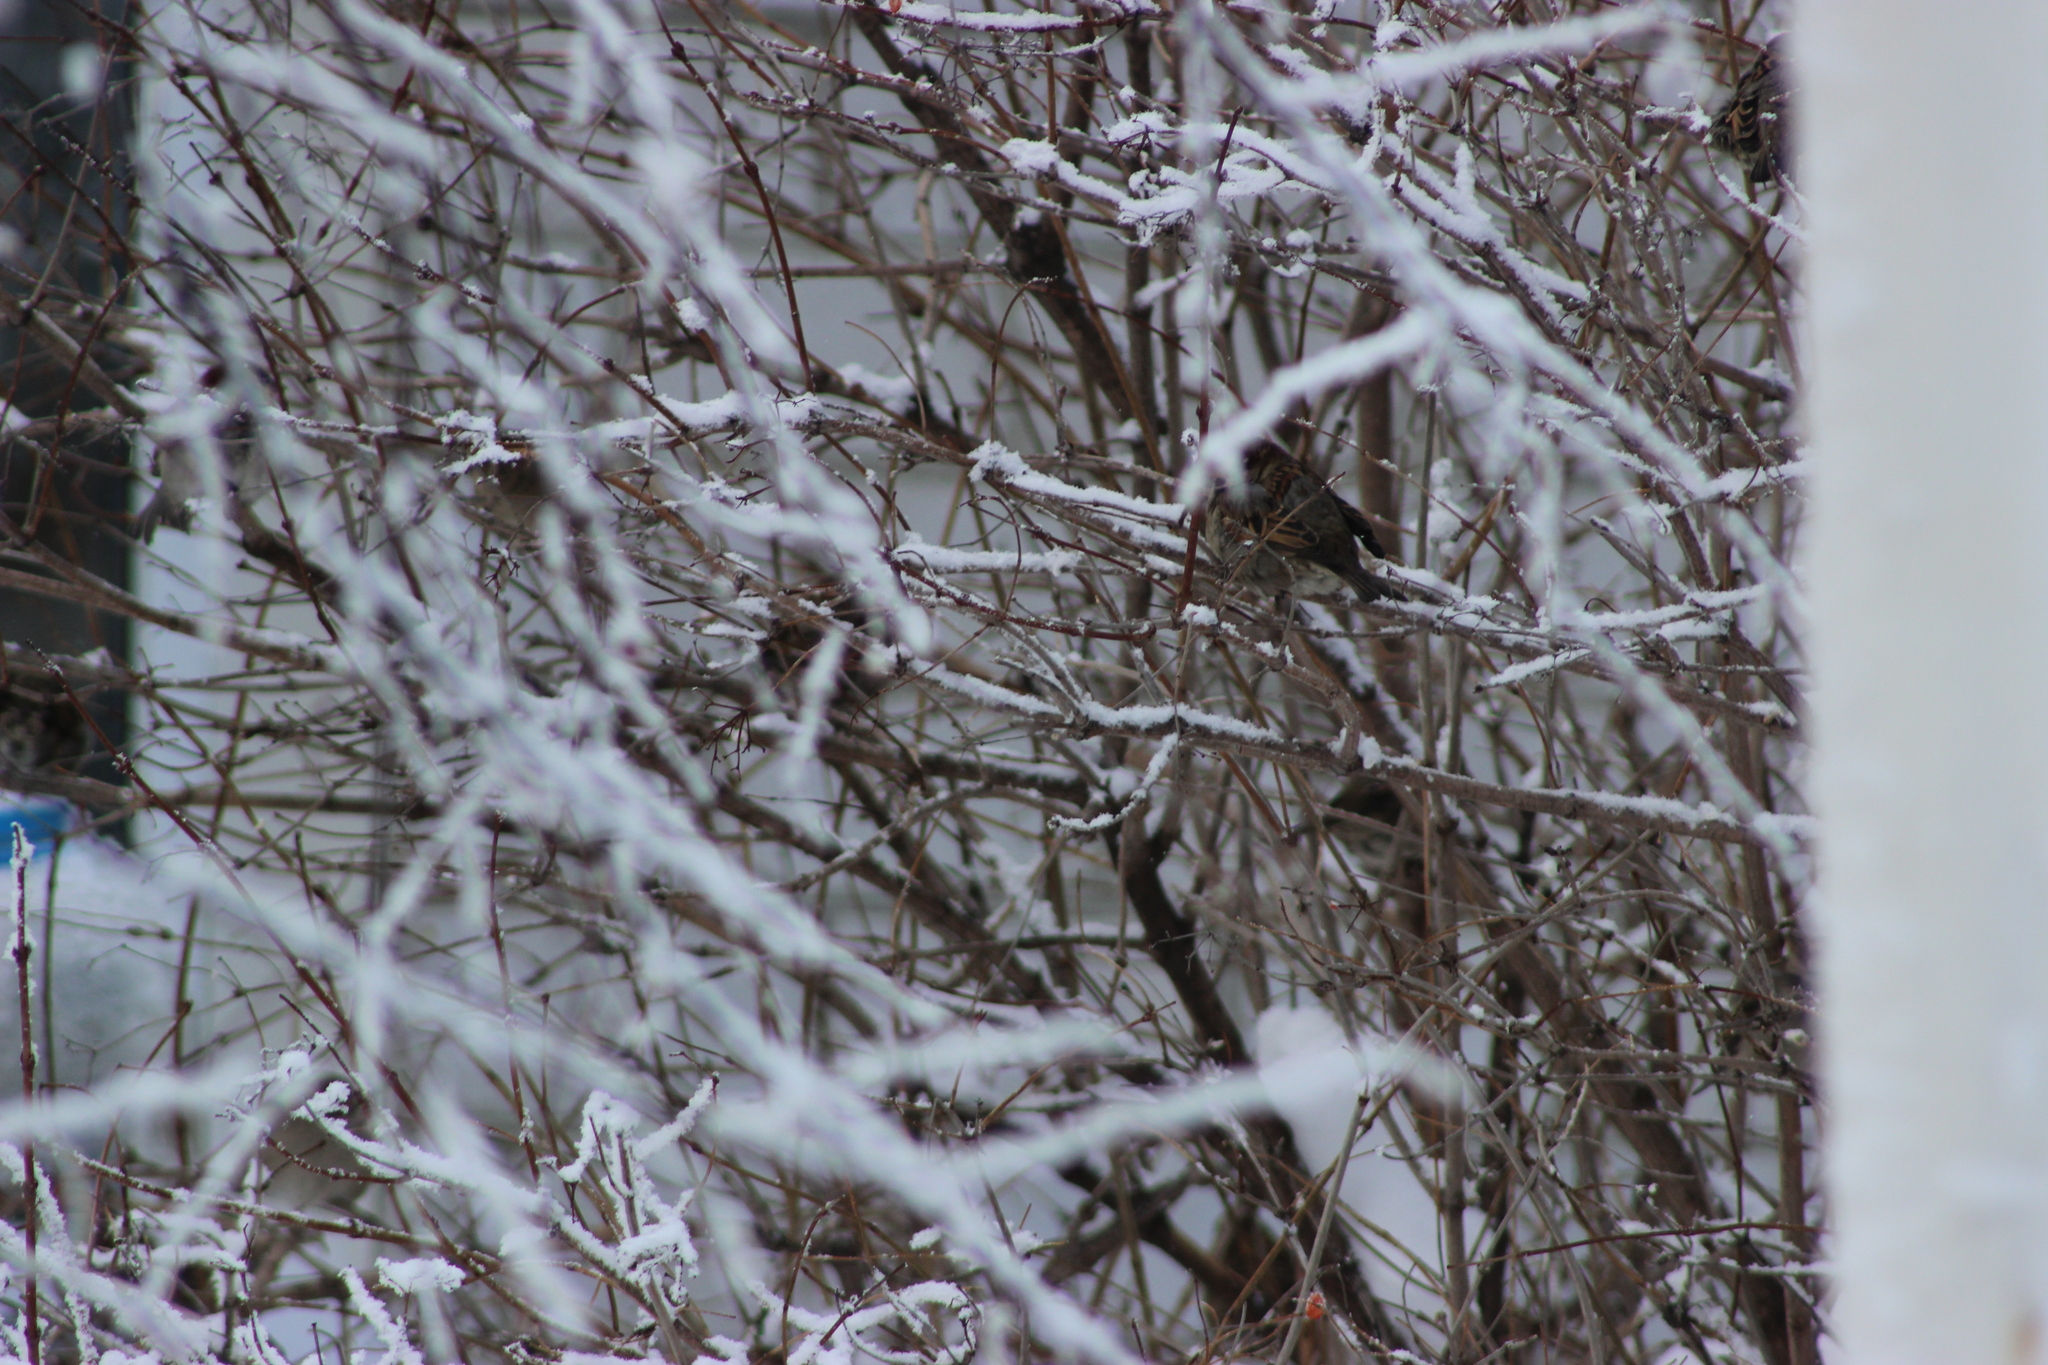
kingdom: Animalia
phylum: Chordata
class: Aves
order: Passeriformes
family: Passeridae
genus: Passer
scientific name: Passer domesticus
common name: House sparrow
